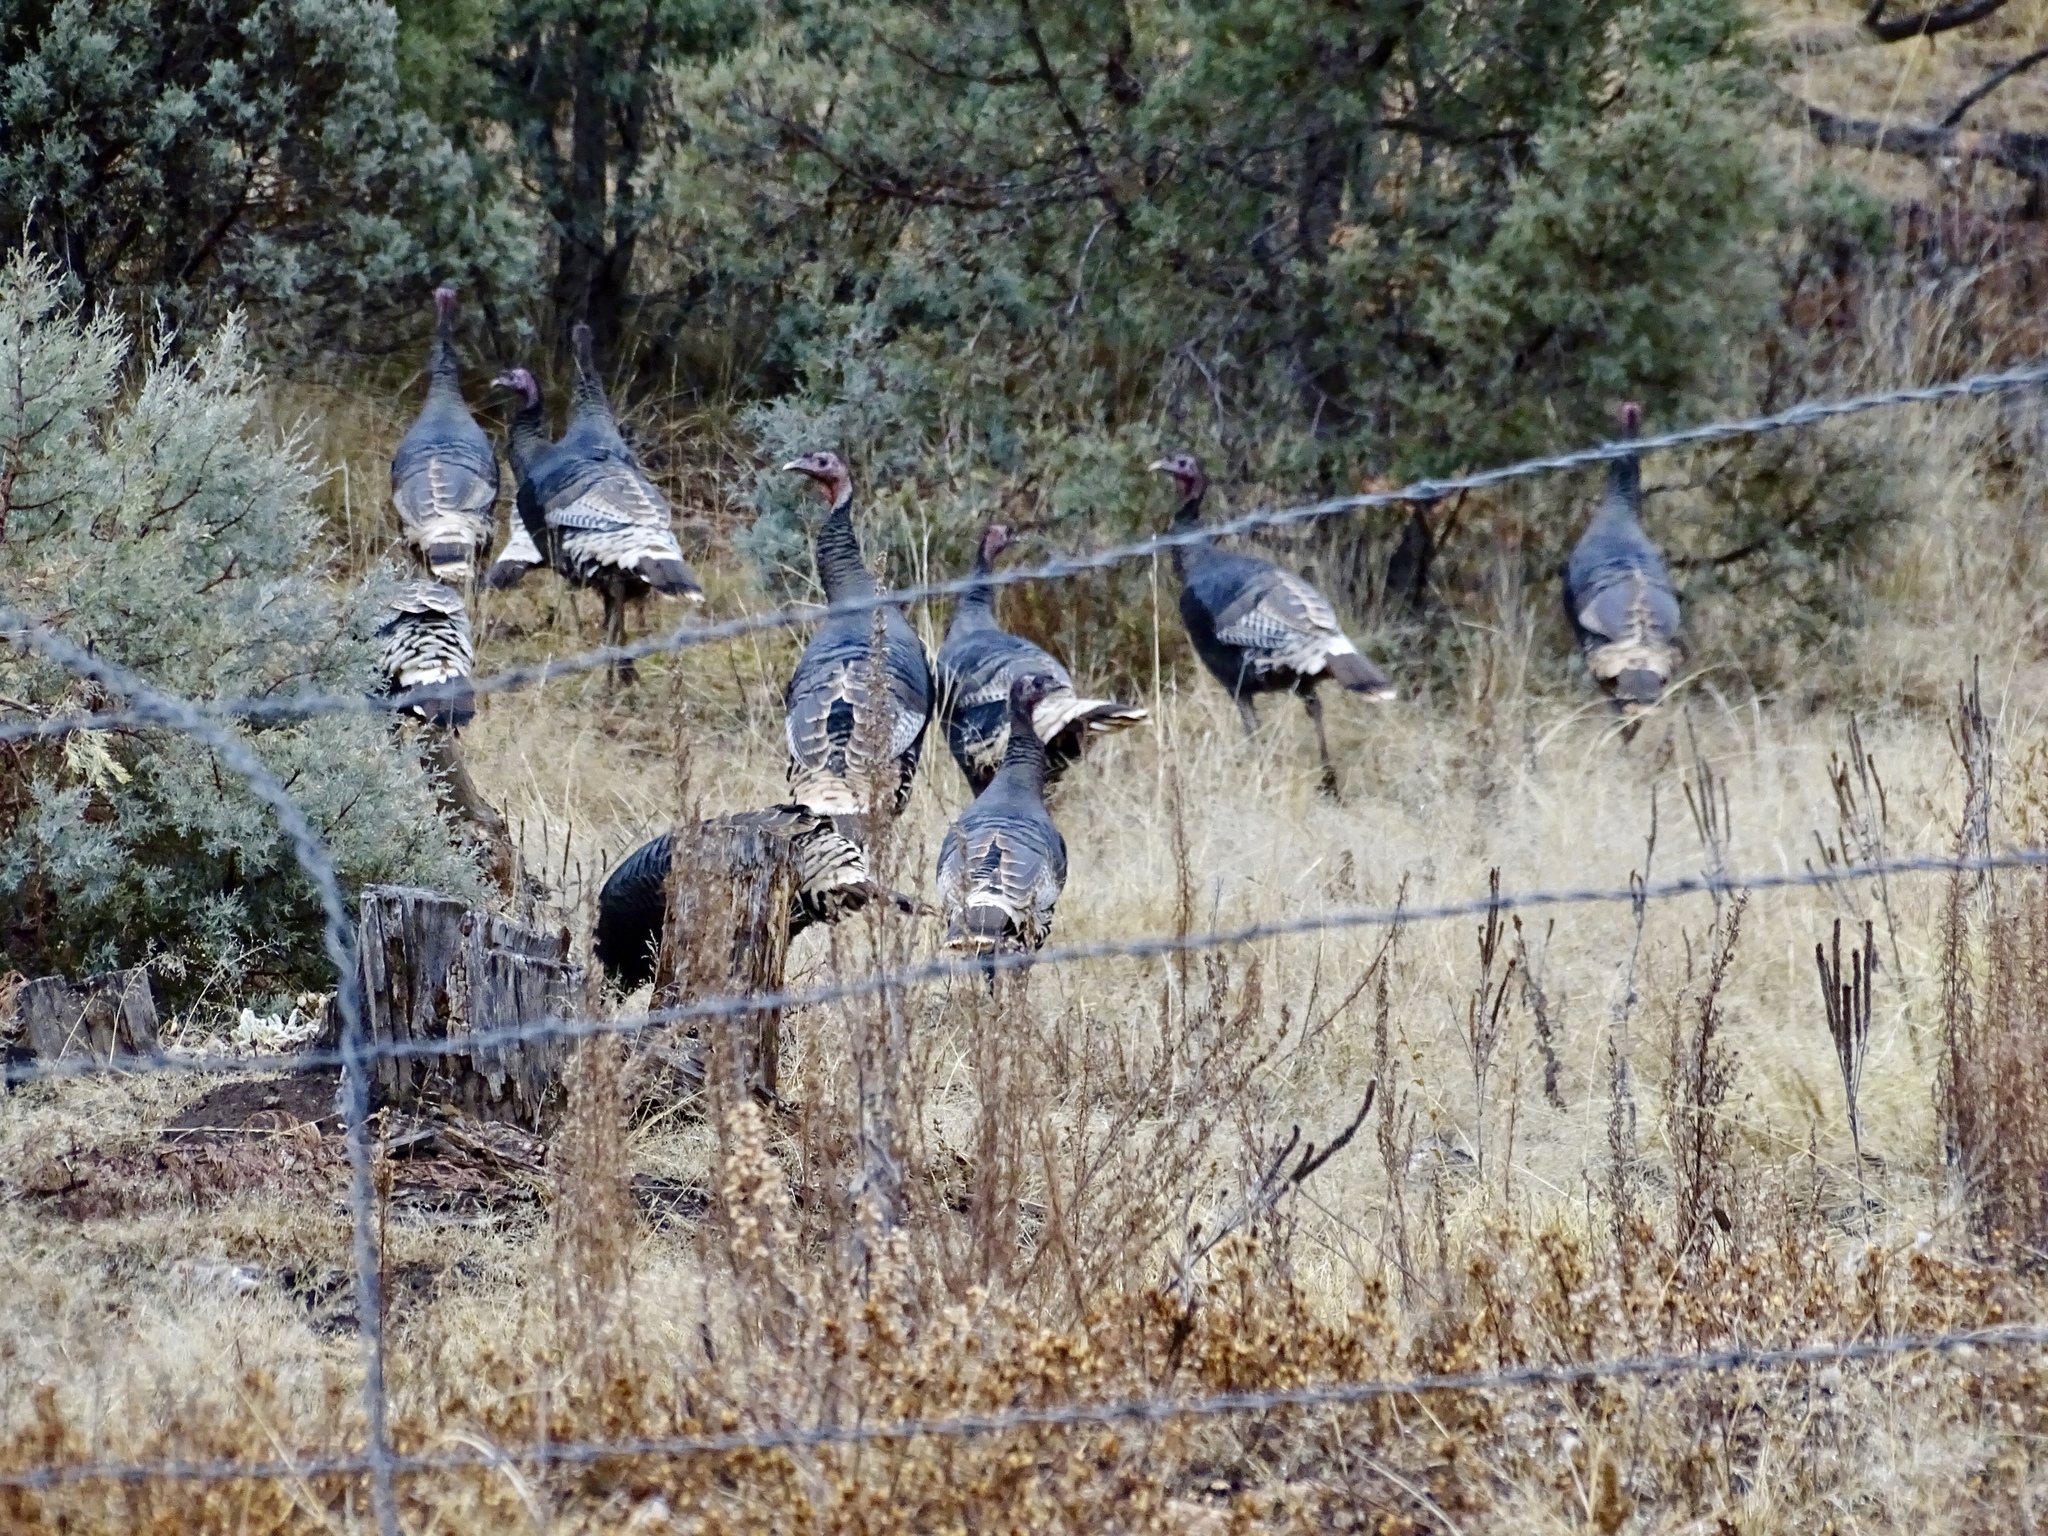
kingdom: Animalia
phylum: Chordata
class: Aves
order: Galliformes
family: Phasianidae
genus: Meleagris
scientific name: Meleagris gallopavo
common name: Wild turkey
